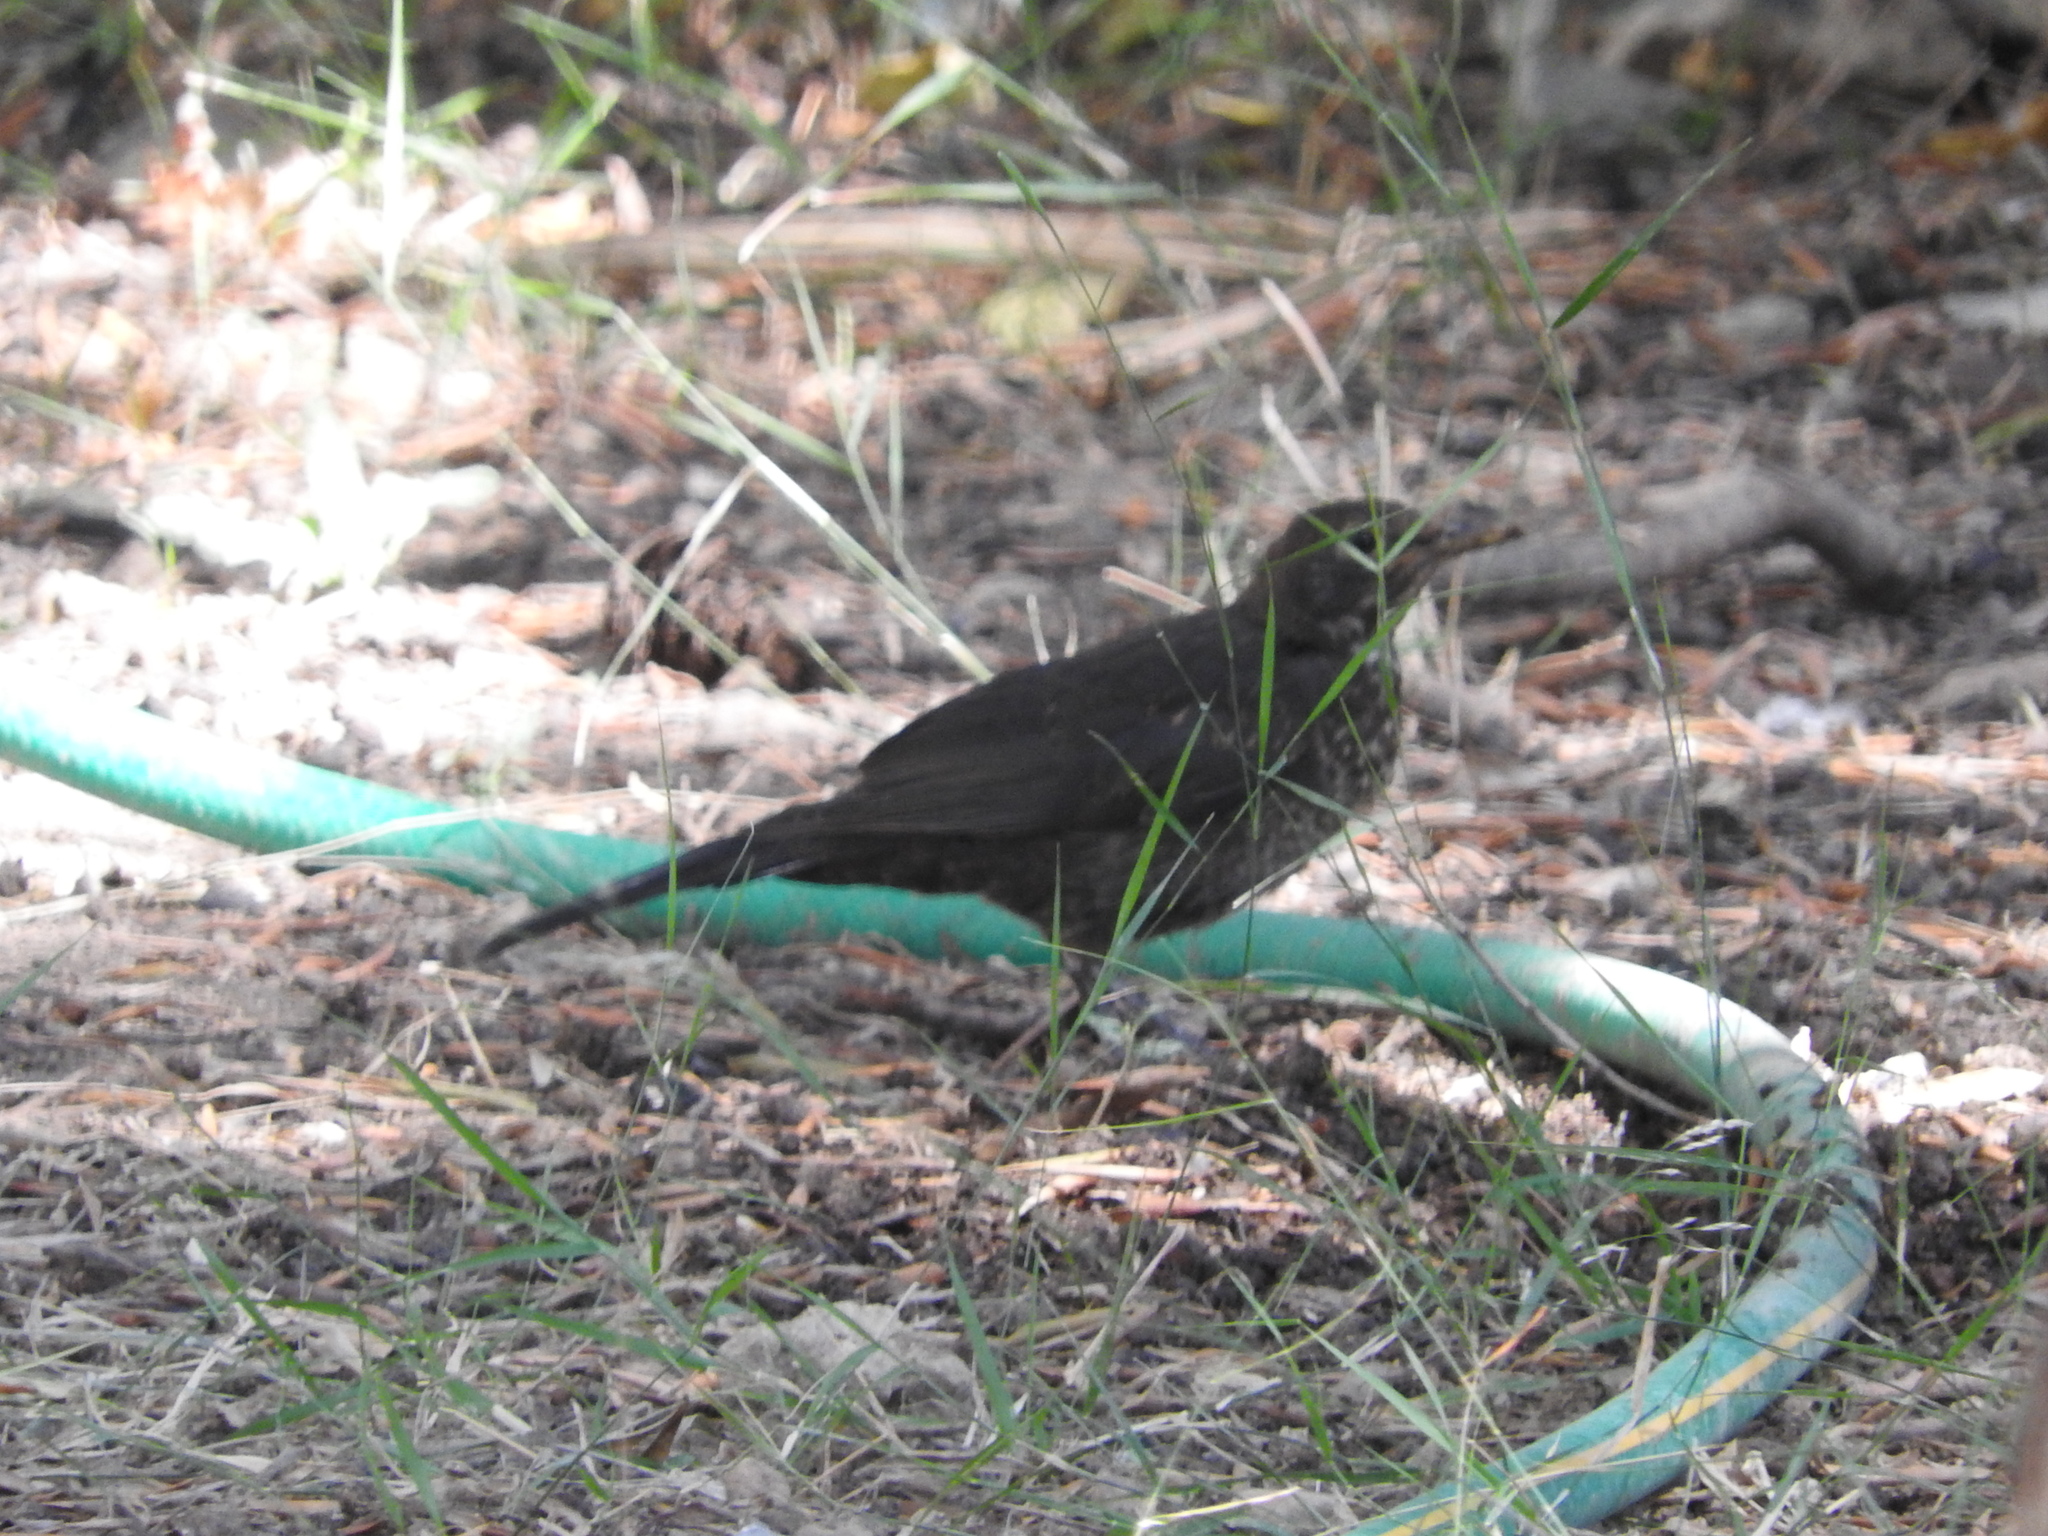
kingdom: Animalia
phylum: Chordata
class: Aves
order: Passeriformes
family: Turdidae
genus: Turdus
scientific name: Turdus merula
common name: Common blackbird
